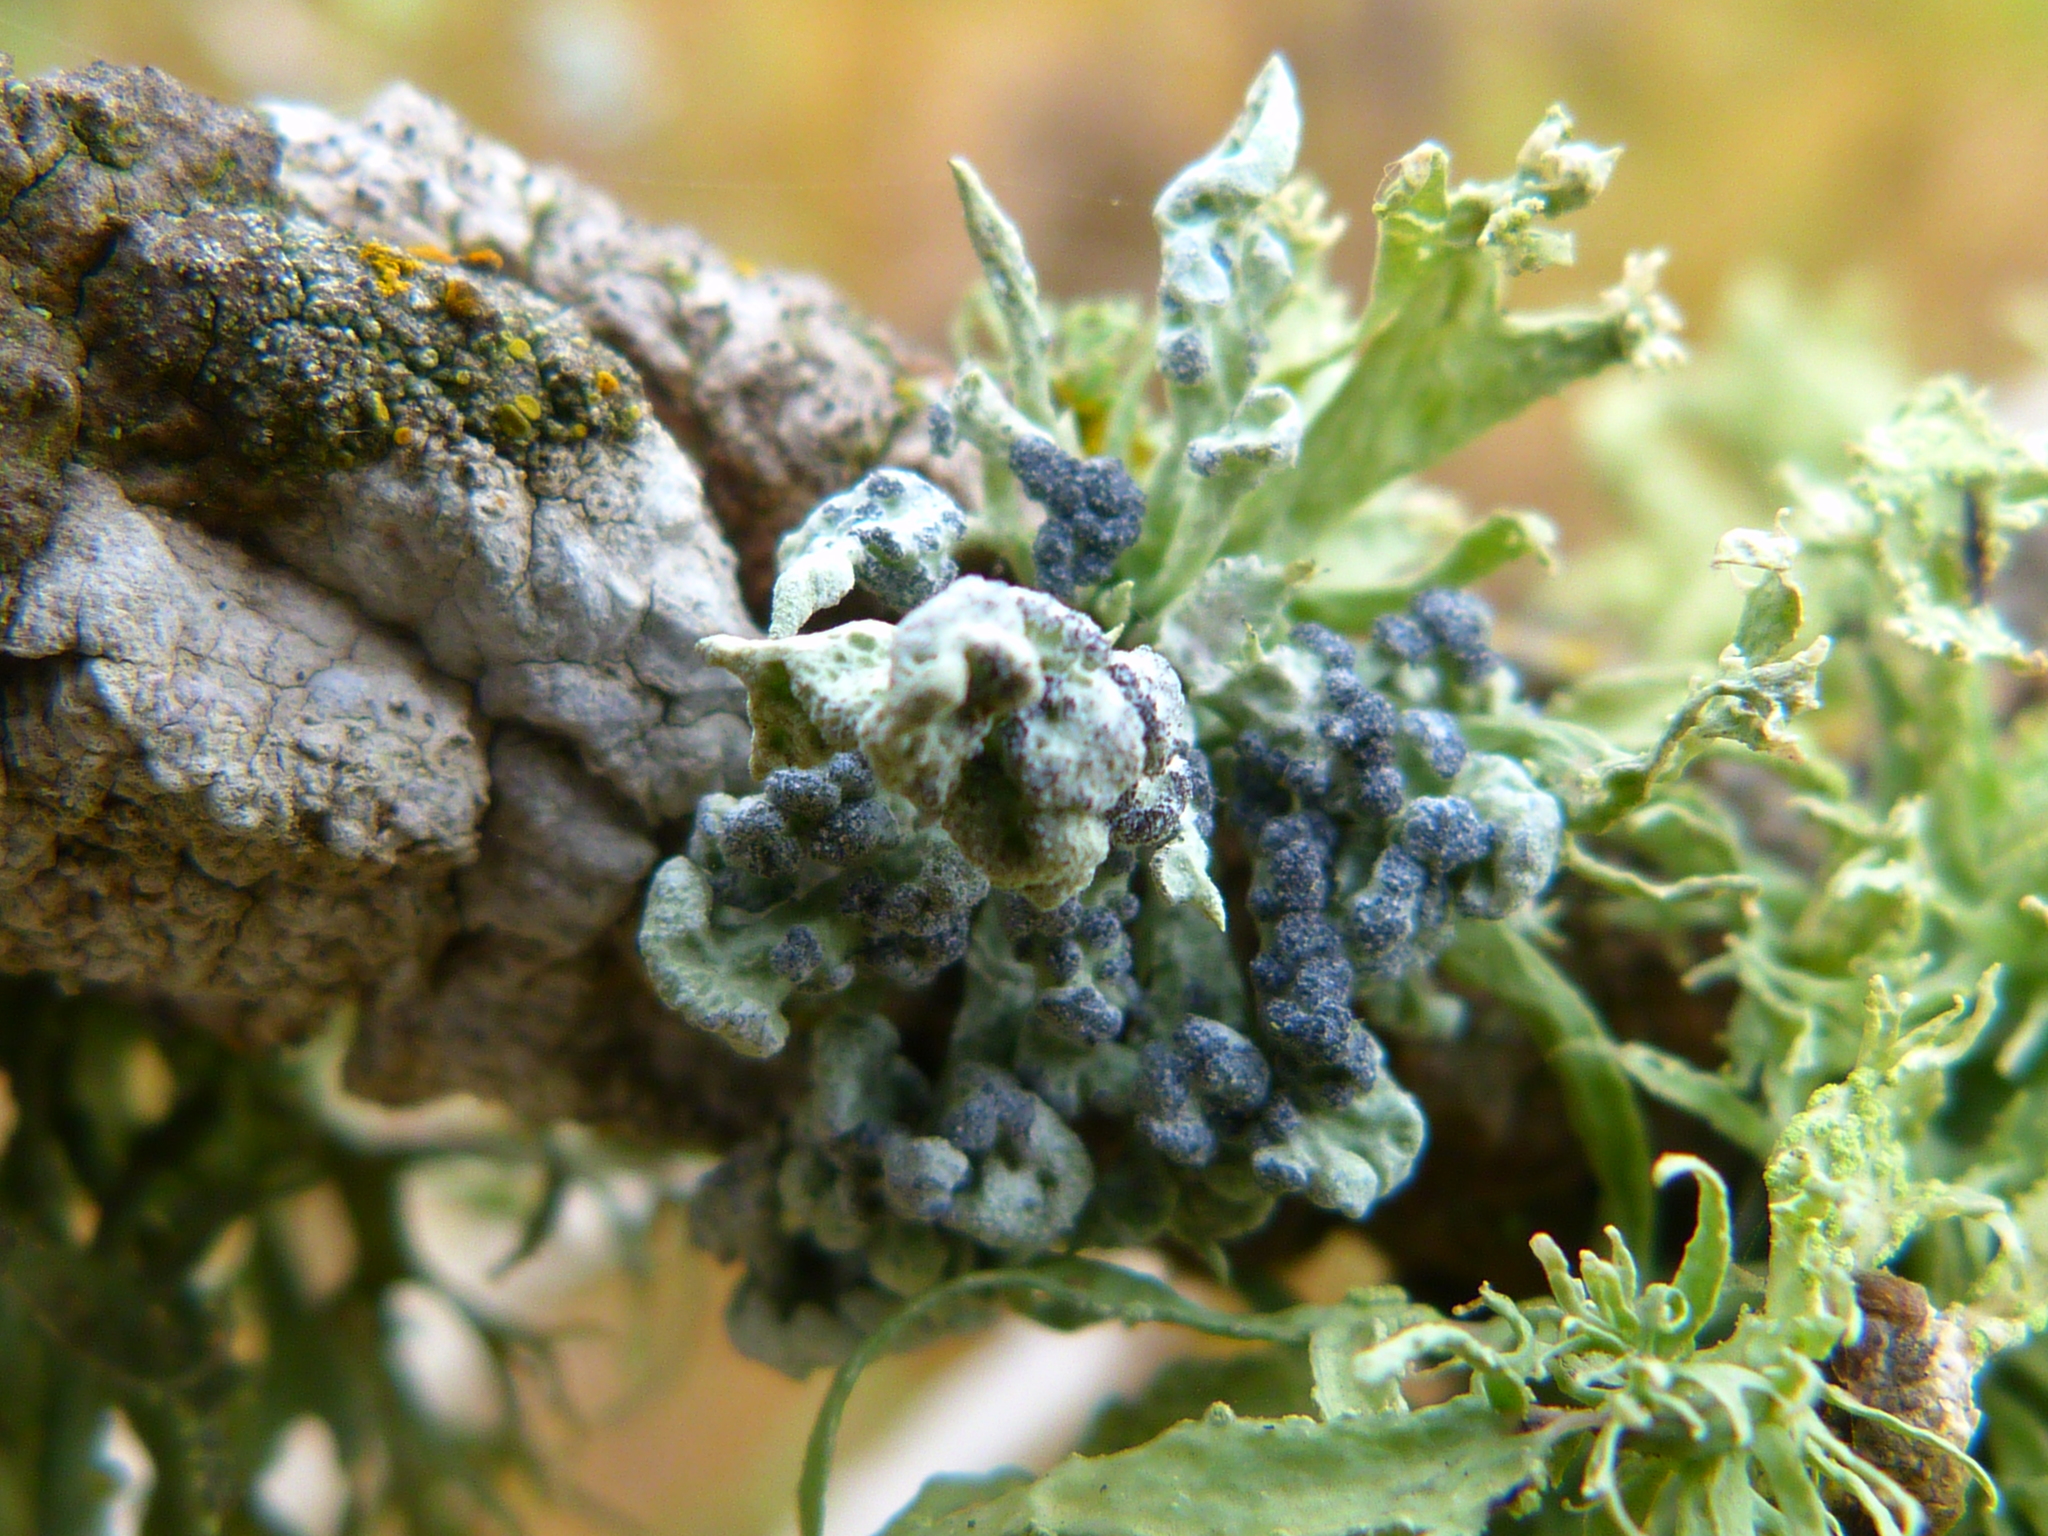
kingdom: Fungi
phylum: Ascomycota
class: Lecanoromycetes
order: Lecanorales
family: Ramalinaceae
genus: Niebla
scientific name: Niebla cephalota
